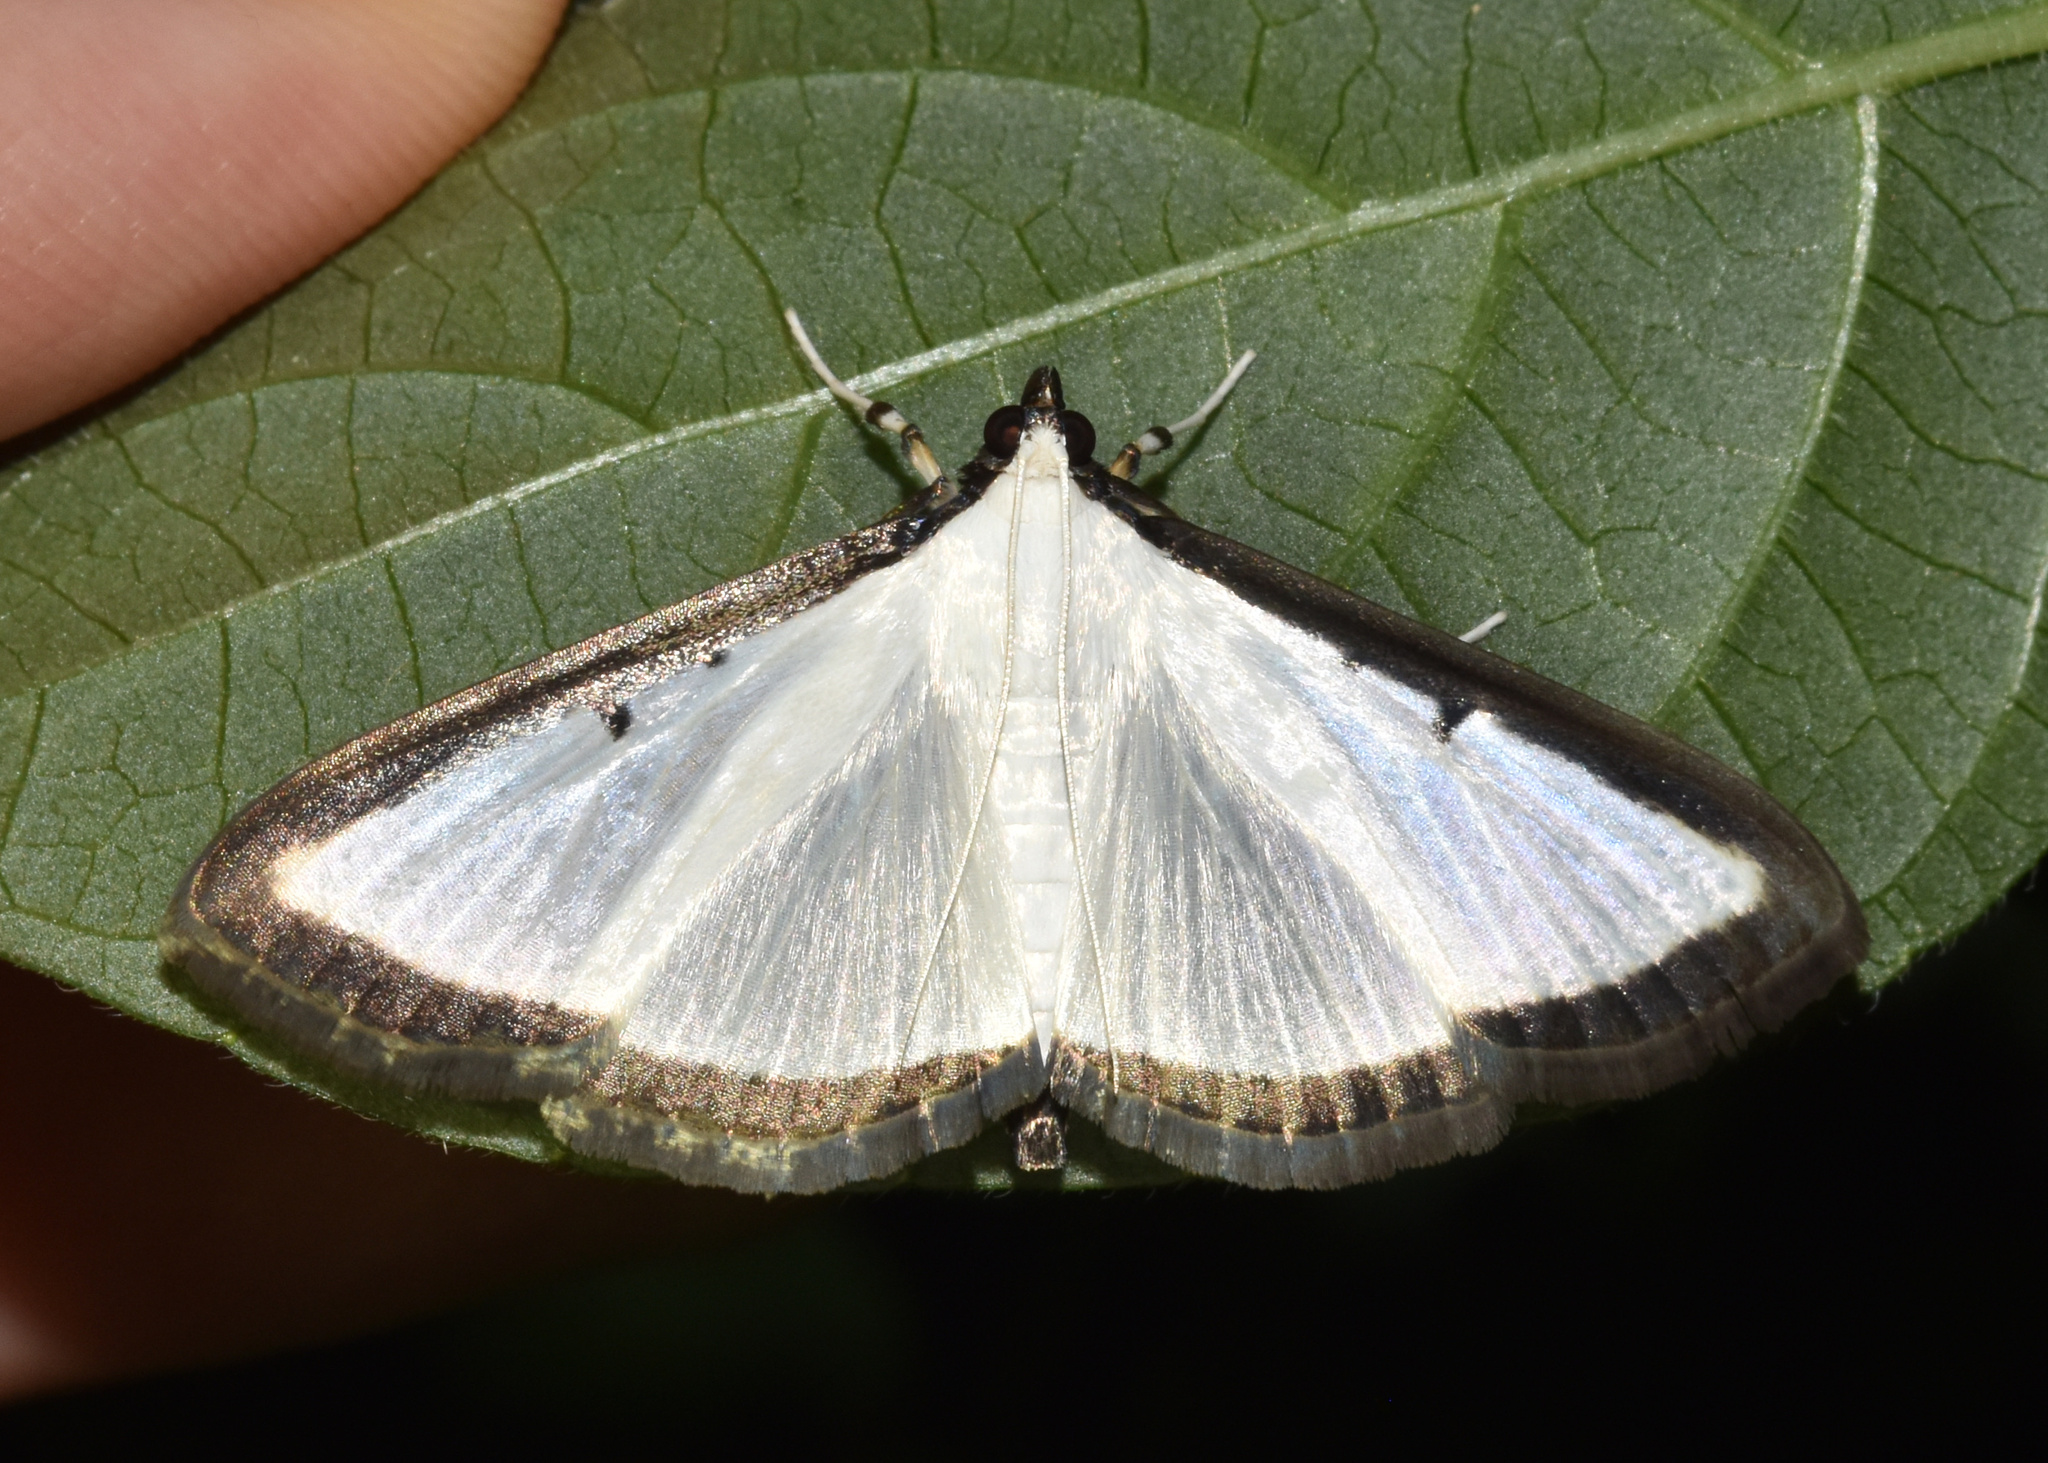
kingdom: Animalia
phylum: Arthropoda
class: Insecta
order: Lepidoptera
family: Crambidae
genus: Cryptographis
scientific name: Cryptographis elealis
